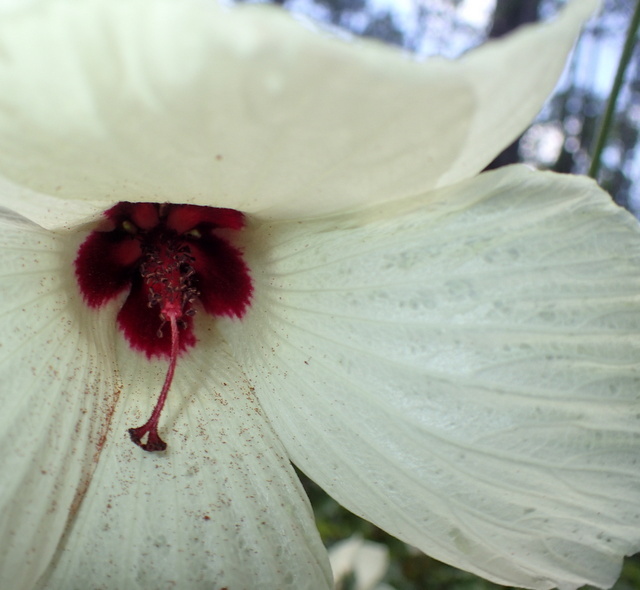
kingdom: Plantae
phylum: Tracheophyta
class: Magnoliopsida
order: Malvales
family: Malvaceae
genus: Hibiscus
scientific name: Hibiscus aculeatus
